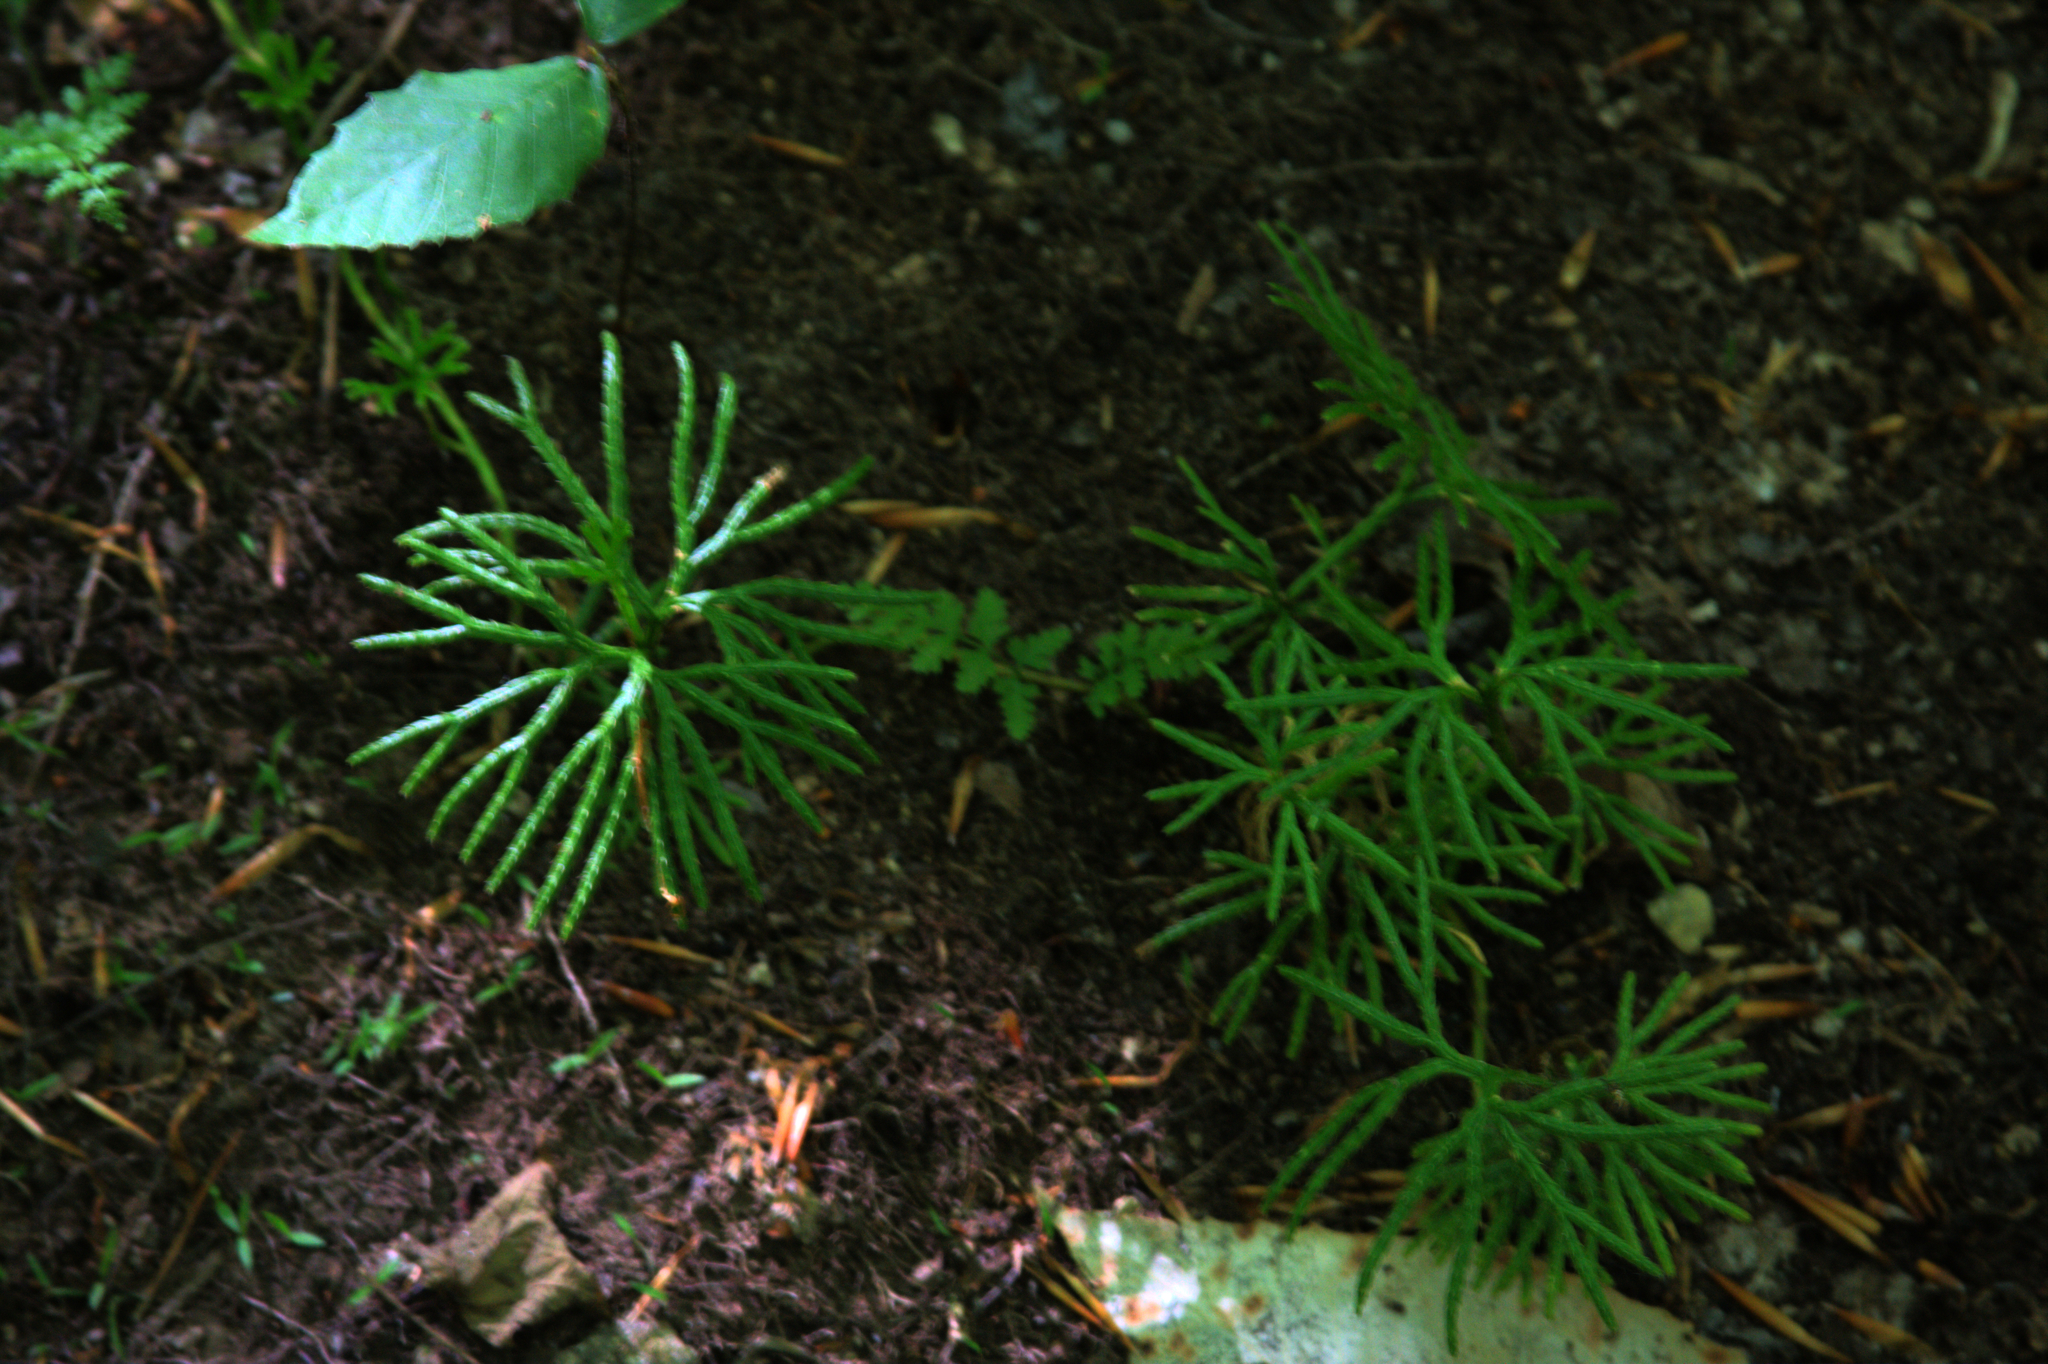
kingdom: Plantae
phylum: Tracheophyta
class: Lycopodiopsida
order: Lycopodiales
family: Lycopodiaceae
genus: Diphasiastrum
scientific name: Diphasiastrum digitatum
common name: Southern running-pine
